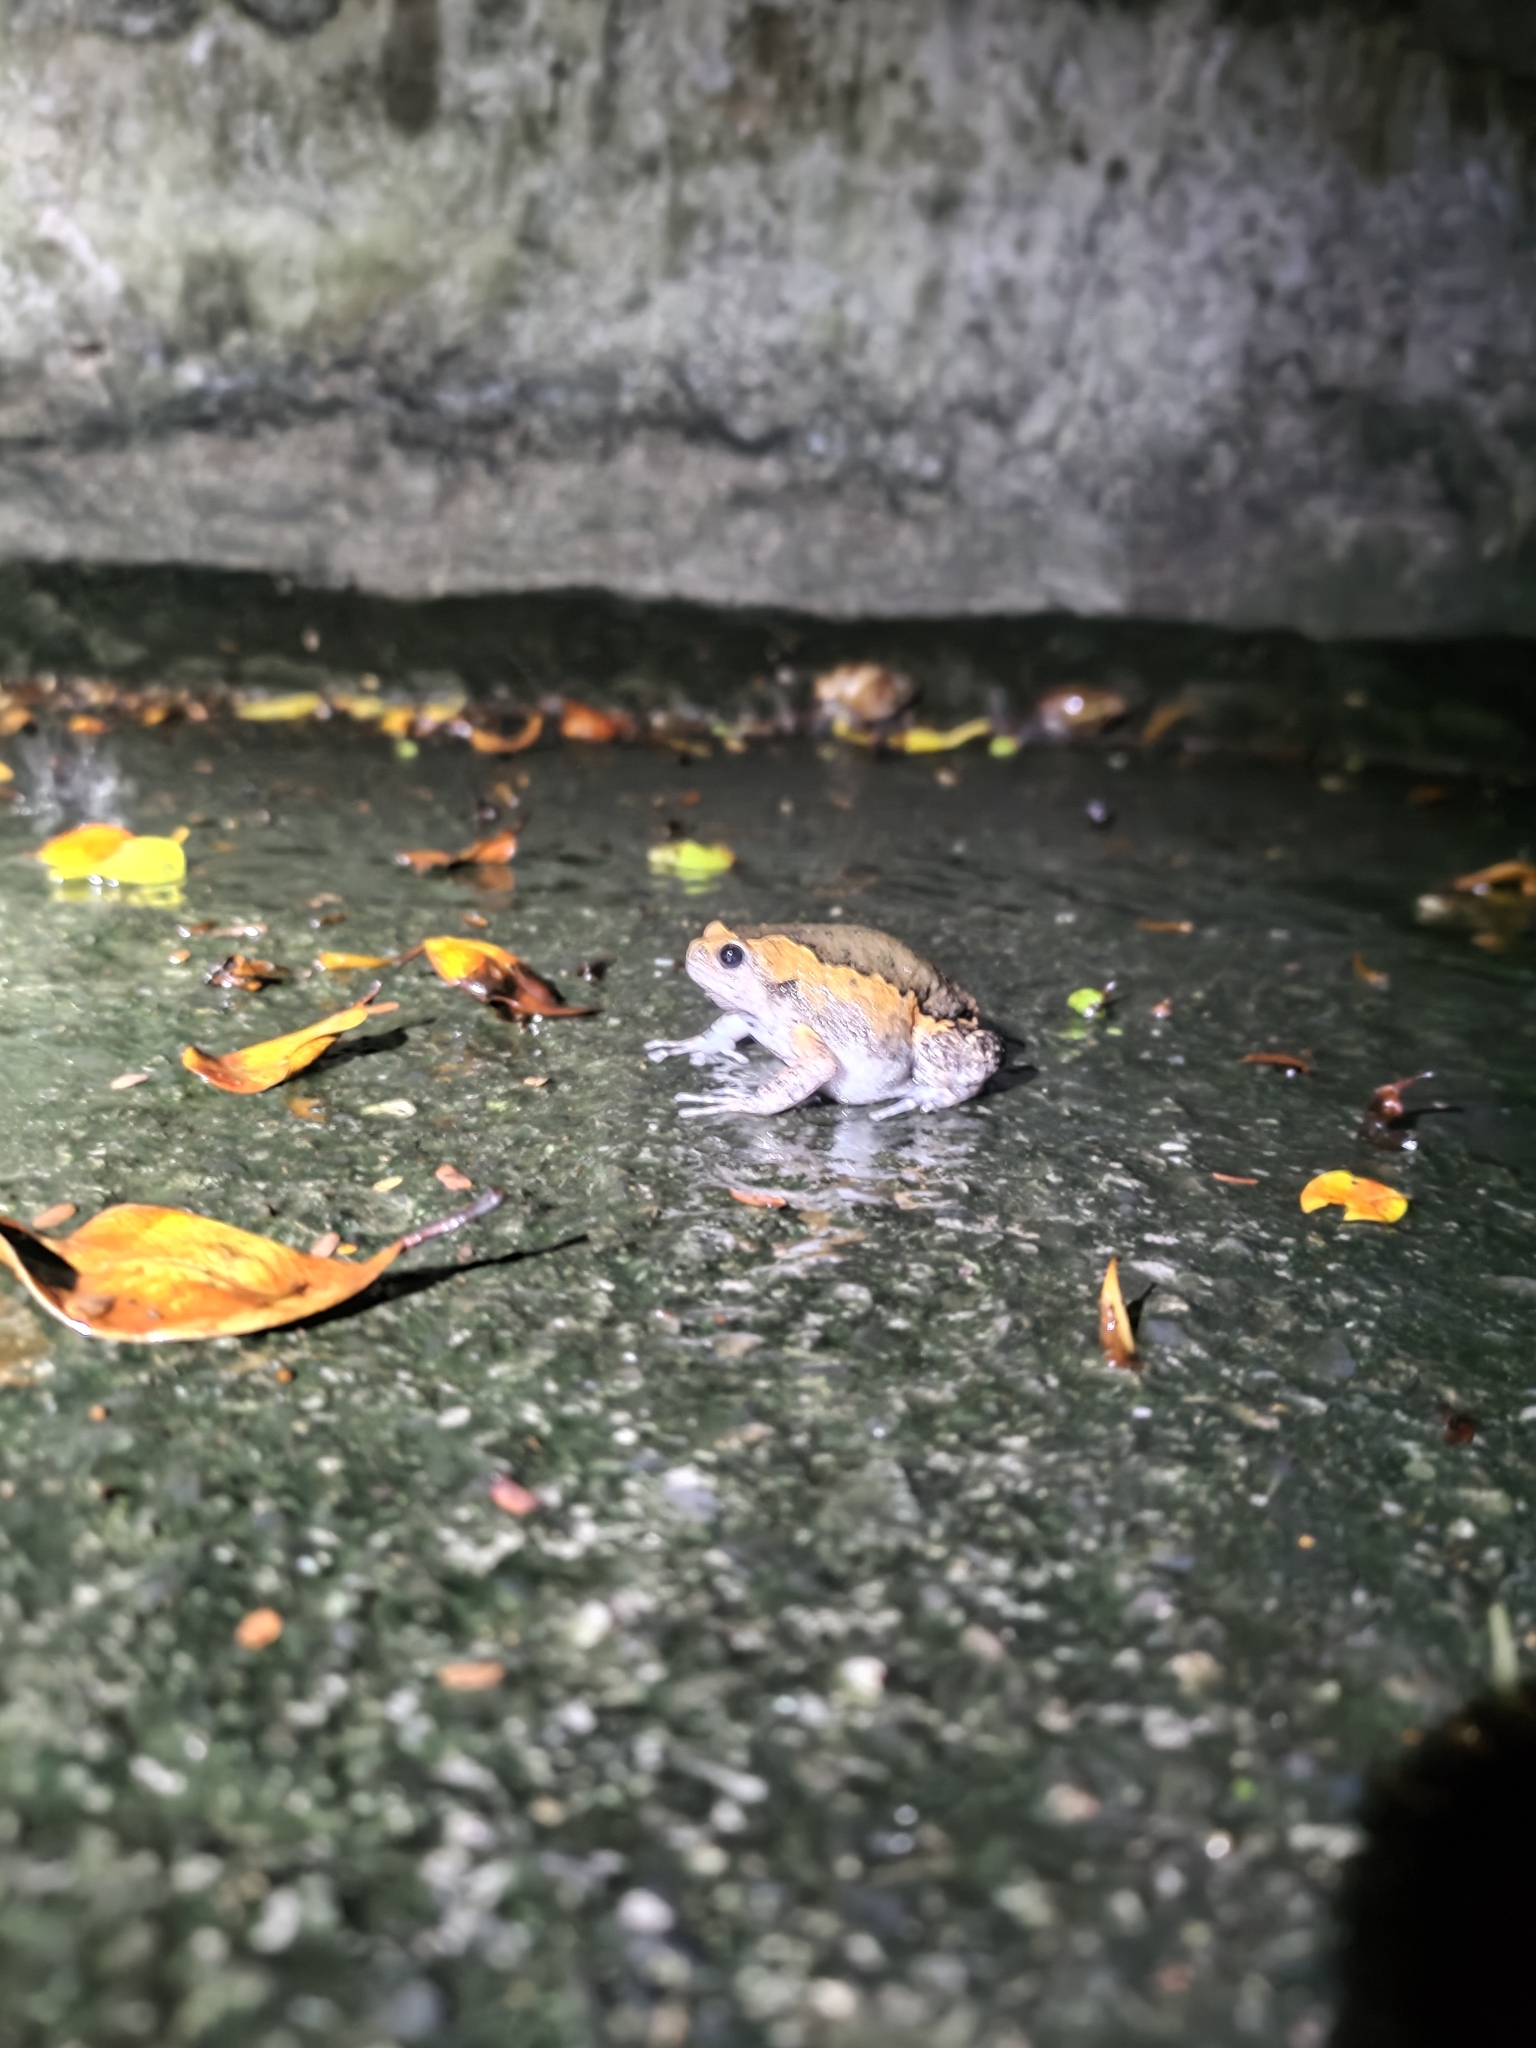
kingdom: Animalia
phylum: Chordata
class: Amphibia
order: Anura
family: Microhylidae
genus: Kaloula
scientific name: Kaloula pulchra
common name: Common,banded bullfrog
